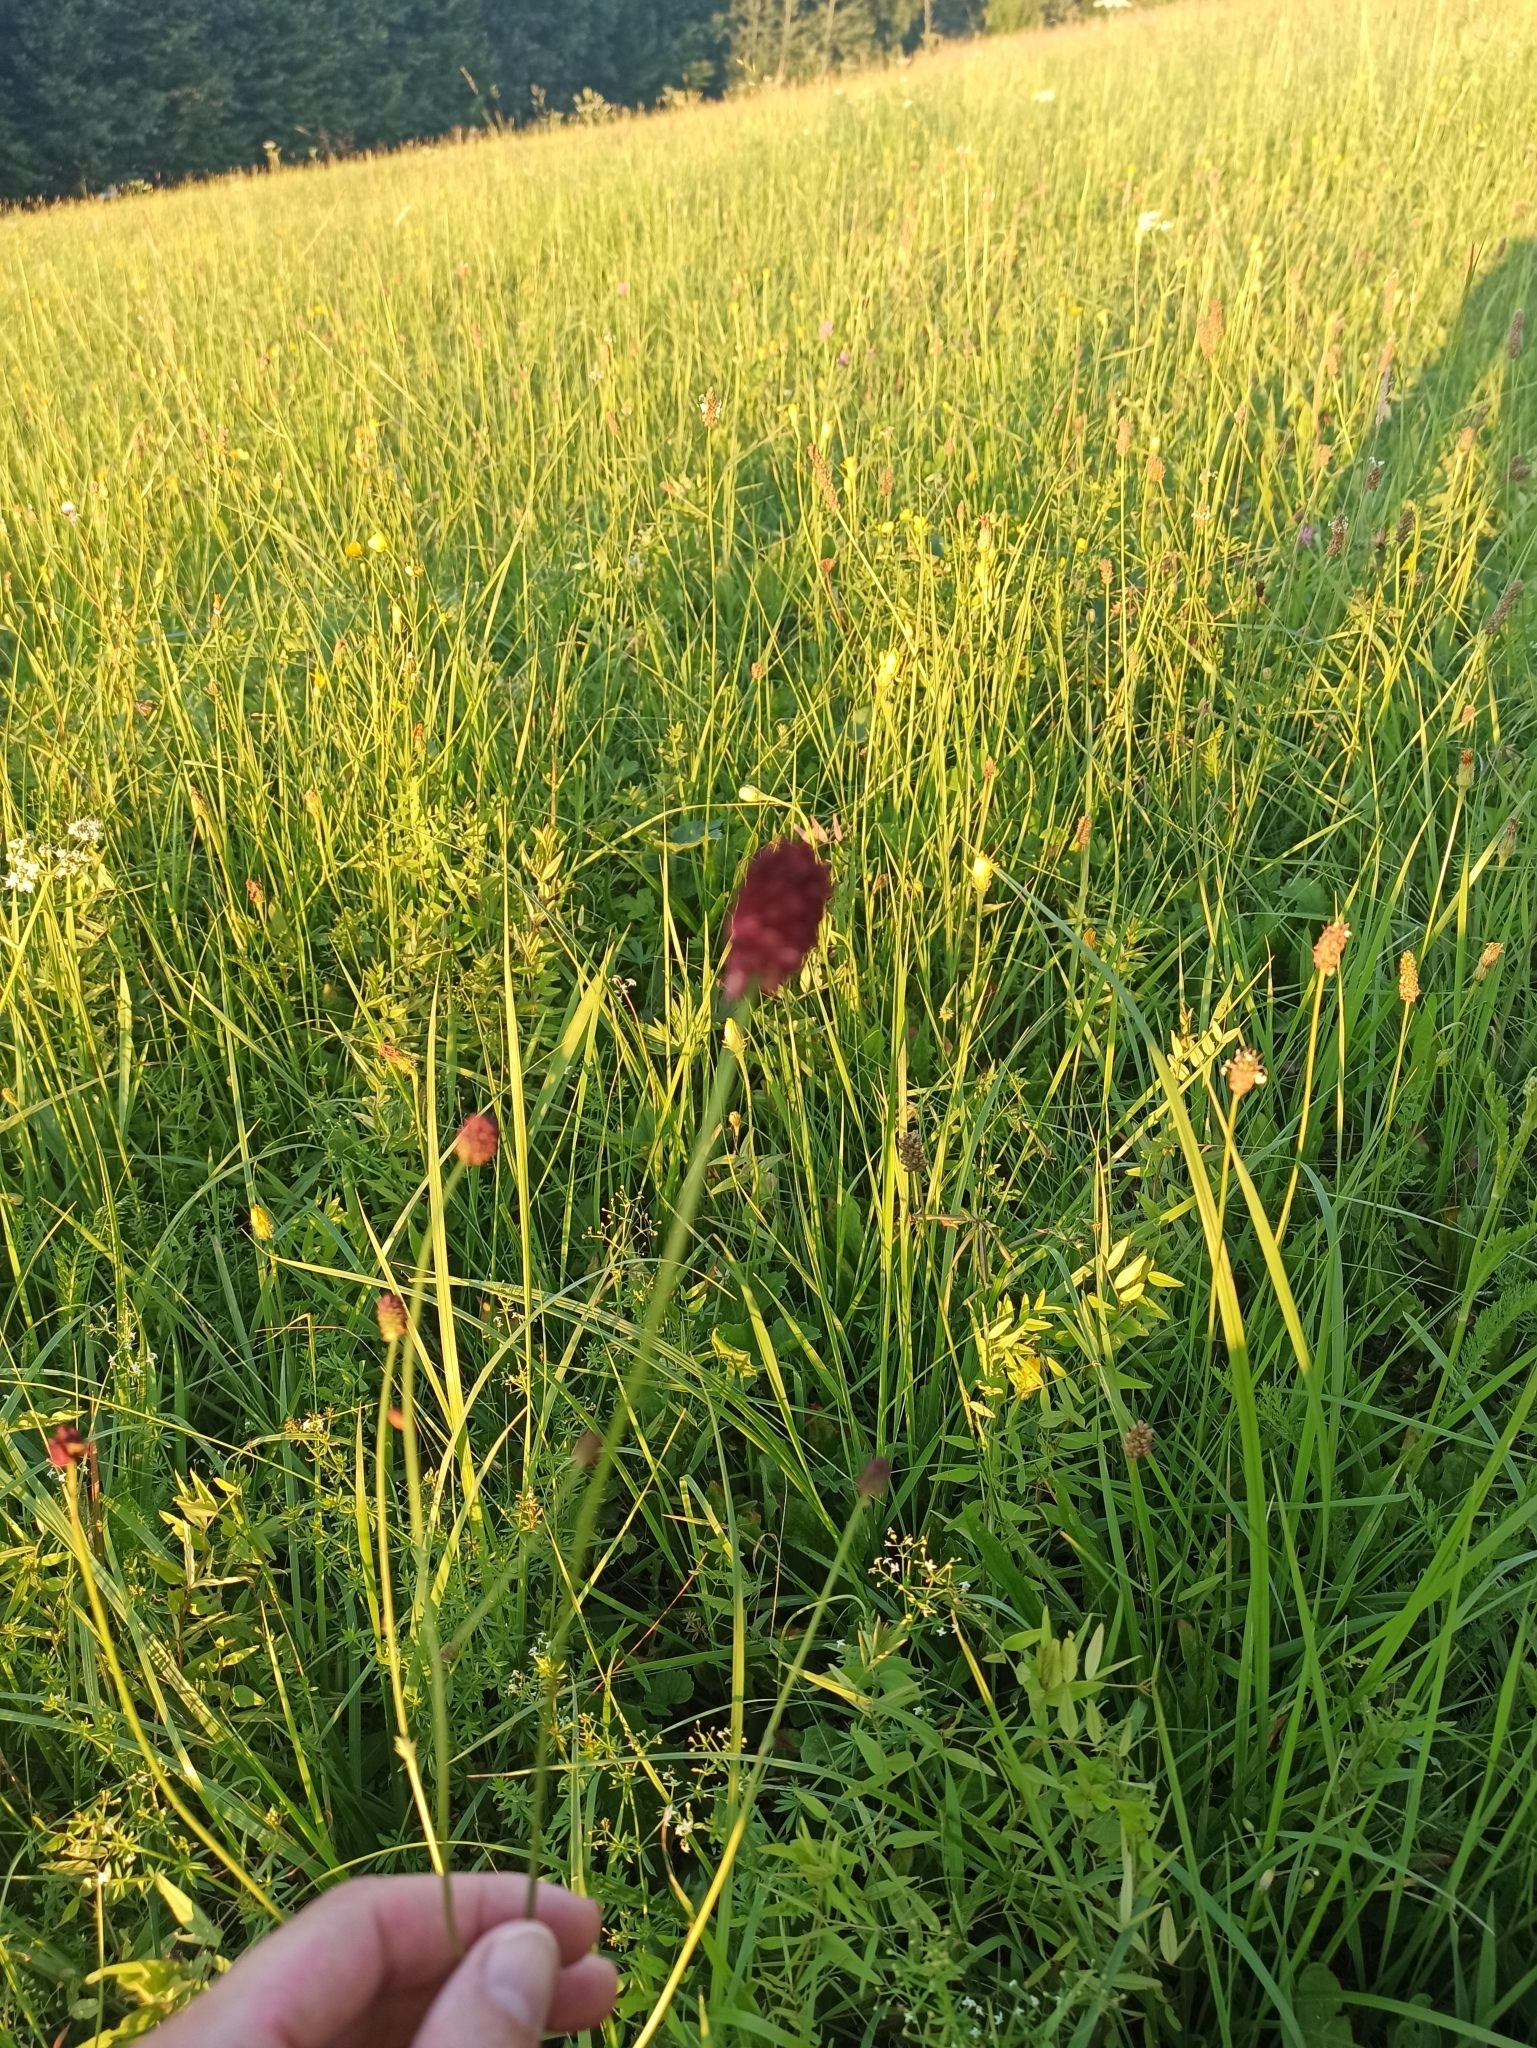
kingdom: Plantae
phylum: Tracheophyta
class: Magnoliopsida
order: Rosales
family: Rosaceae
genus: Sanguisorba
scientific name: Sanguisorba officinalis
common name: Great burnet
